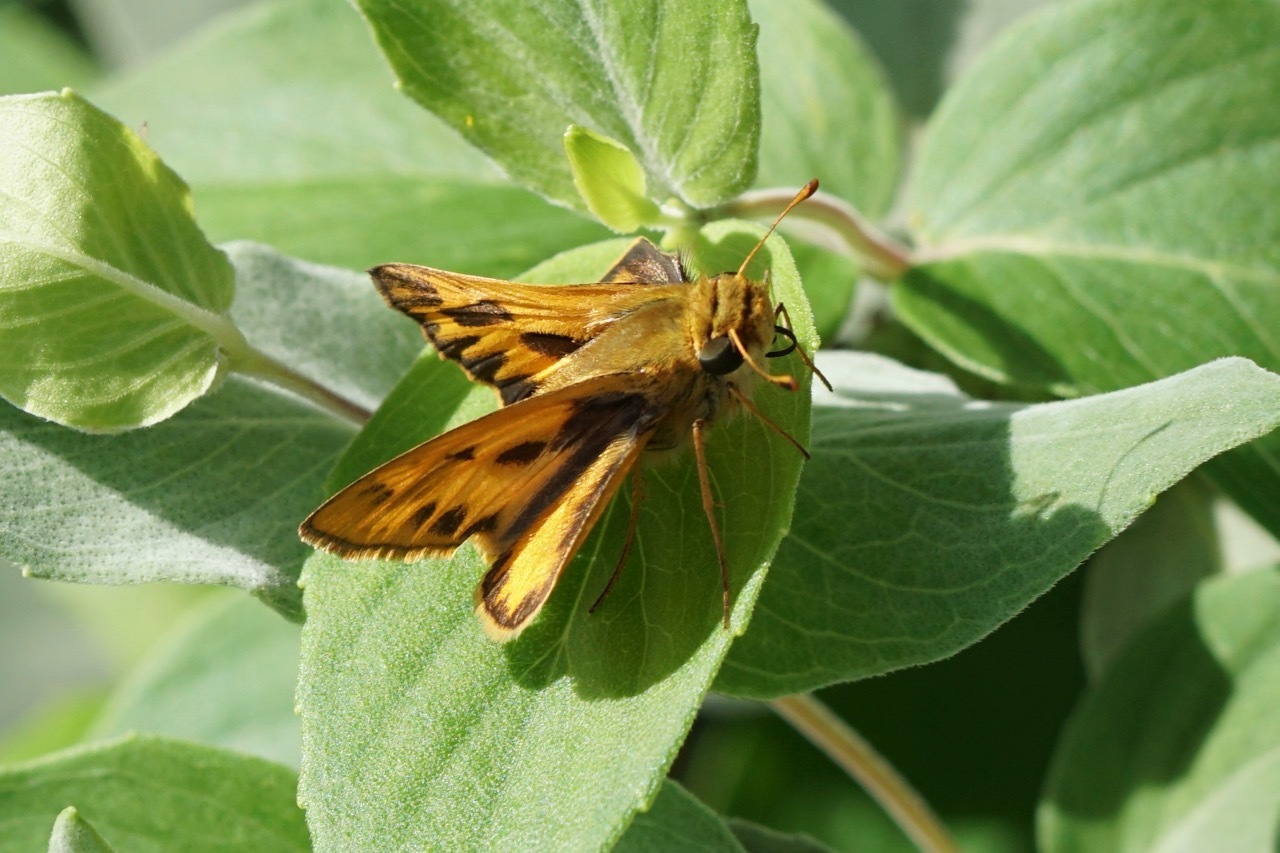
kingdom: Animalia
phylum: Arthropoda
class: Insecta
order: Lepidoptera
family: Hesperiidae
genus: Hylephila
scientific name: Hylephila phyleus
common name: Fiery skipper
